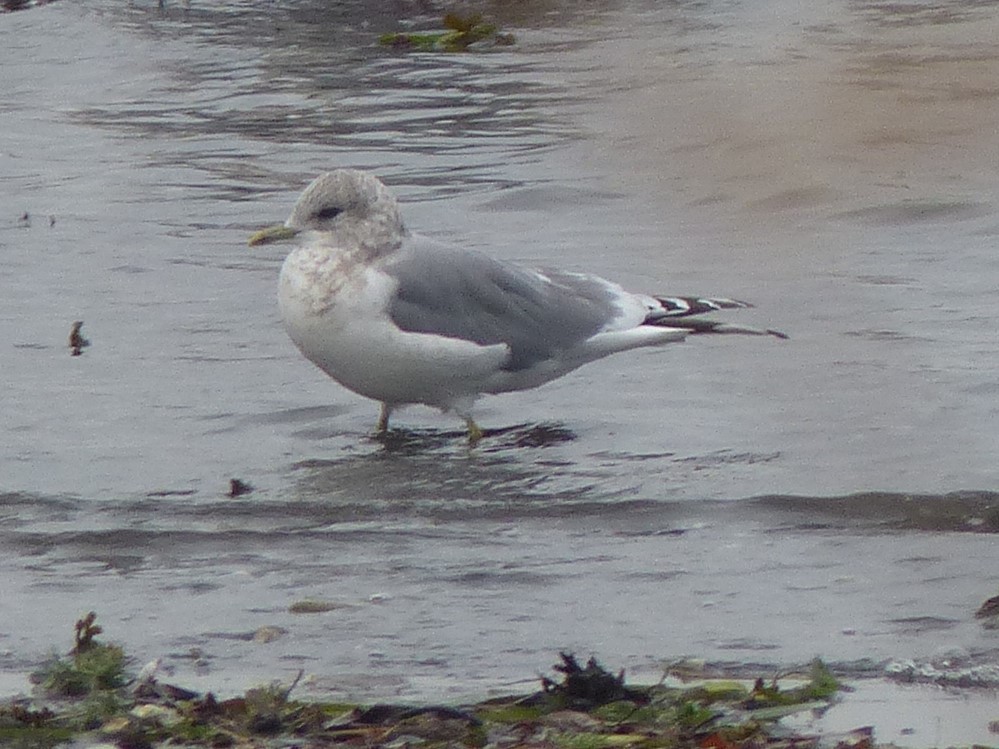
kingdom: Animalia
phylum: Chordata
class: Aves
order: Charadriiformes
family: Laridae
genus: Larus
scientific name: Larus brachyrhynchus
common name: Short-billed gull
